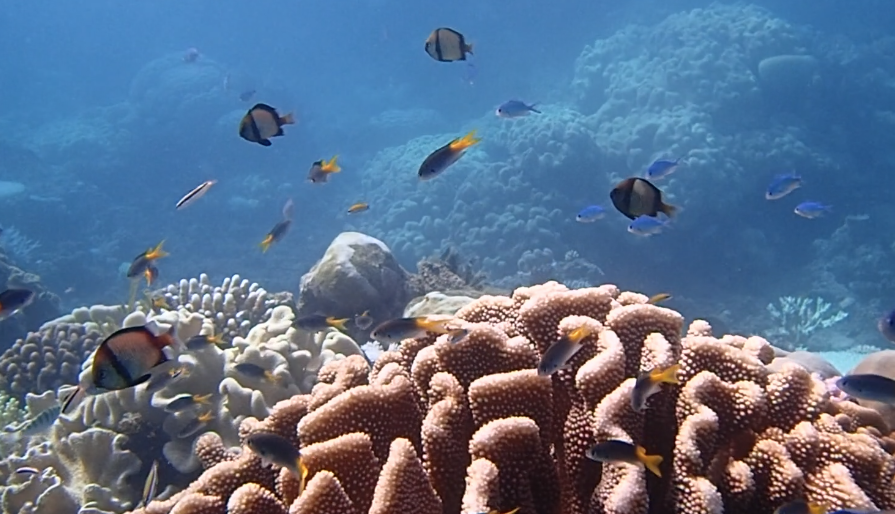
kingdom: Animalia
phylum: Chordata
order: Perciformes
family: Pomacentridae
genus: Dascyllus
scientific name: Dascyllus reticulatus
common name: Reticulated dascyllus
